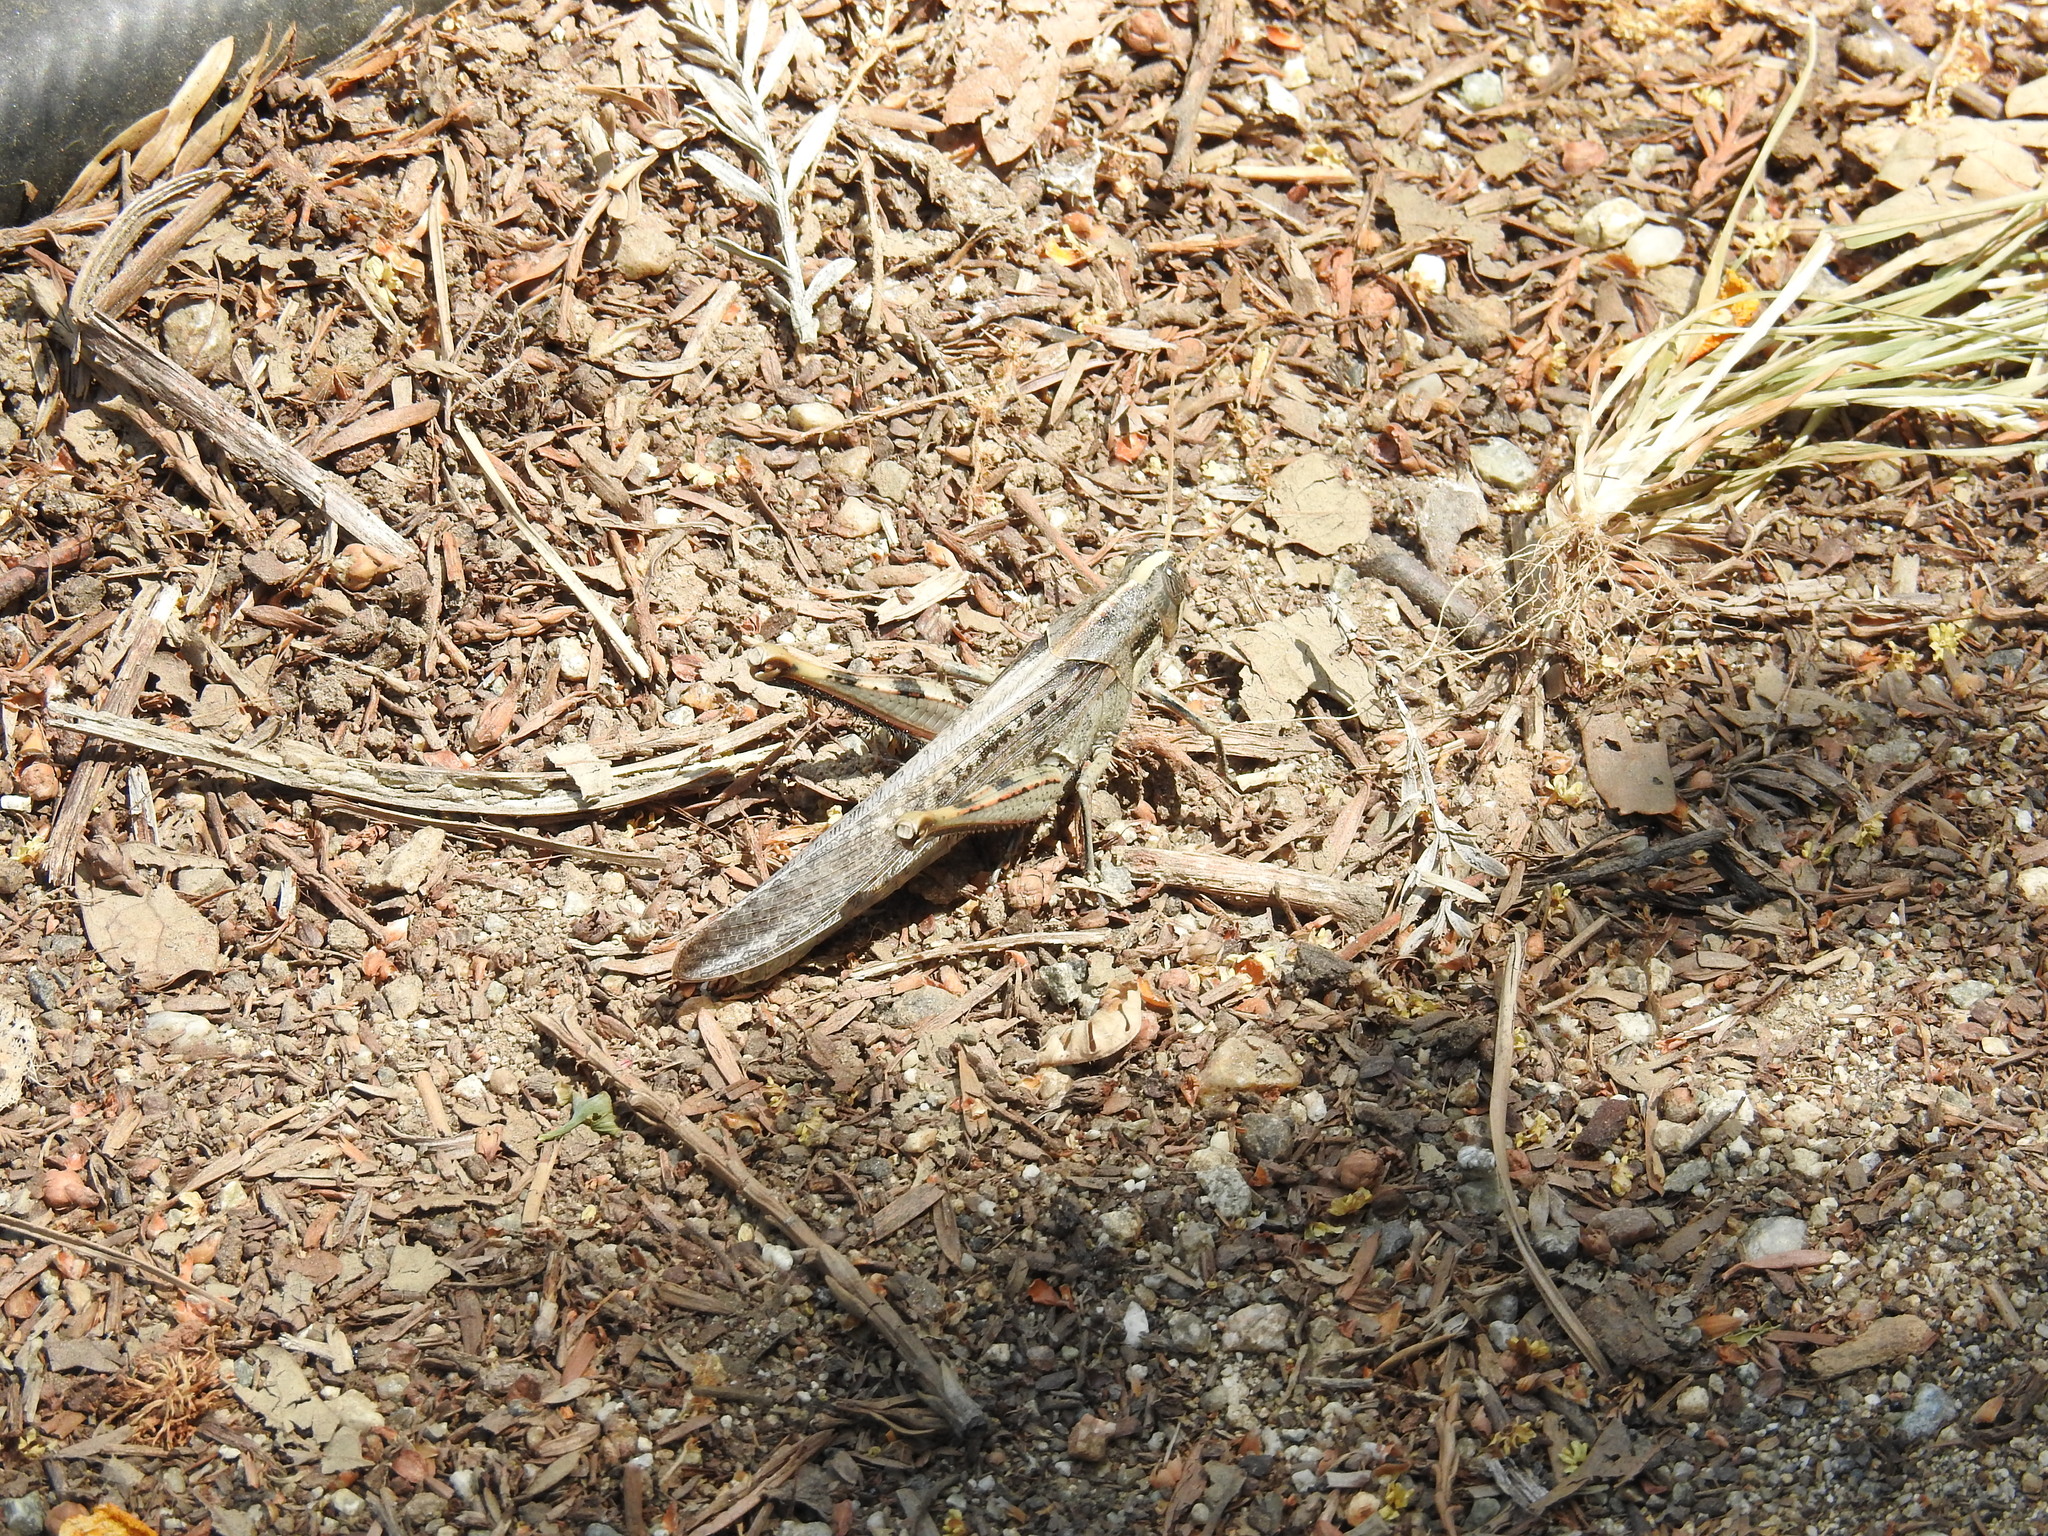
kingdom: Animalia
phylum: Arthropoda
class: Insecta
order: Orthoptera
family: Acrididae
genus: Schistocerca
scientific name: Schistocerca nitens
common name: Vagrant grasshopper
